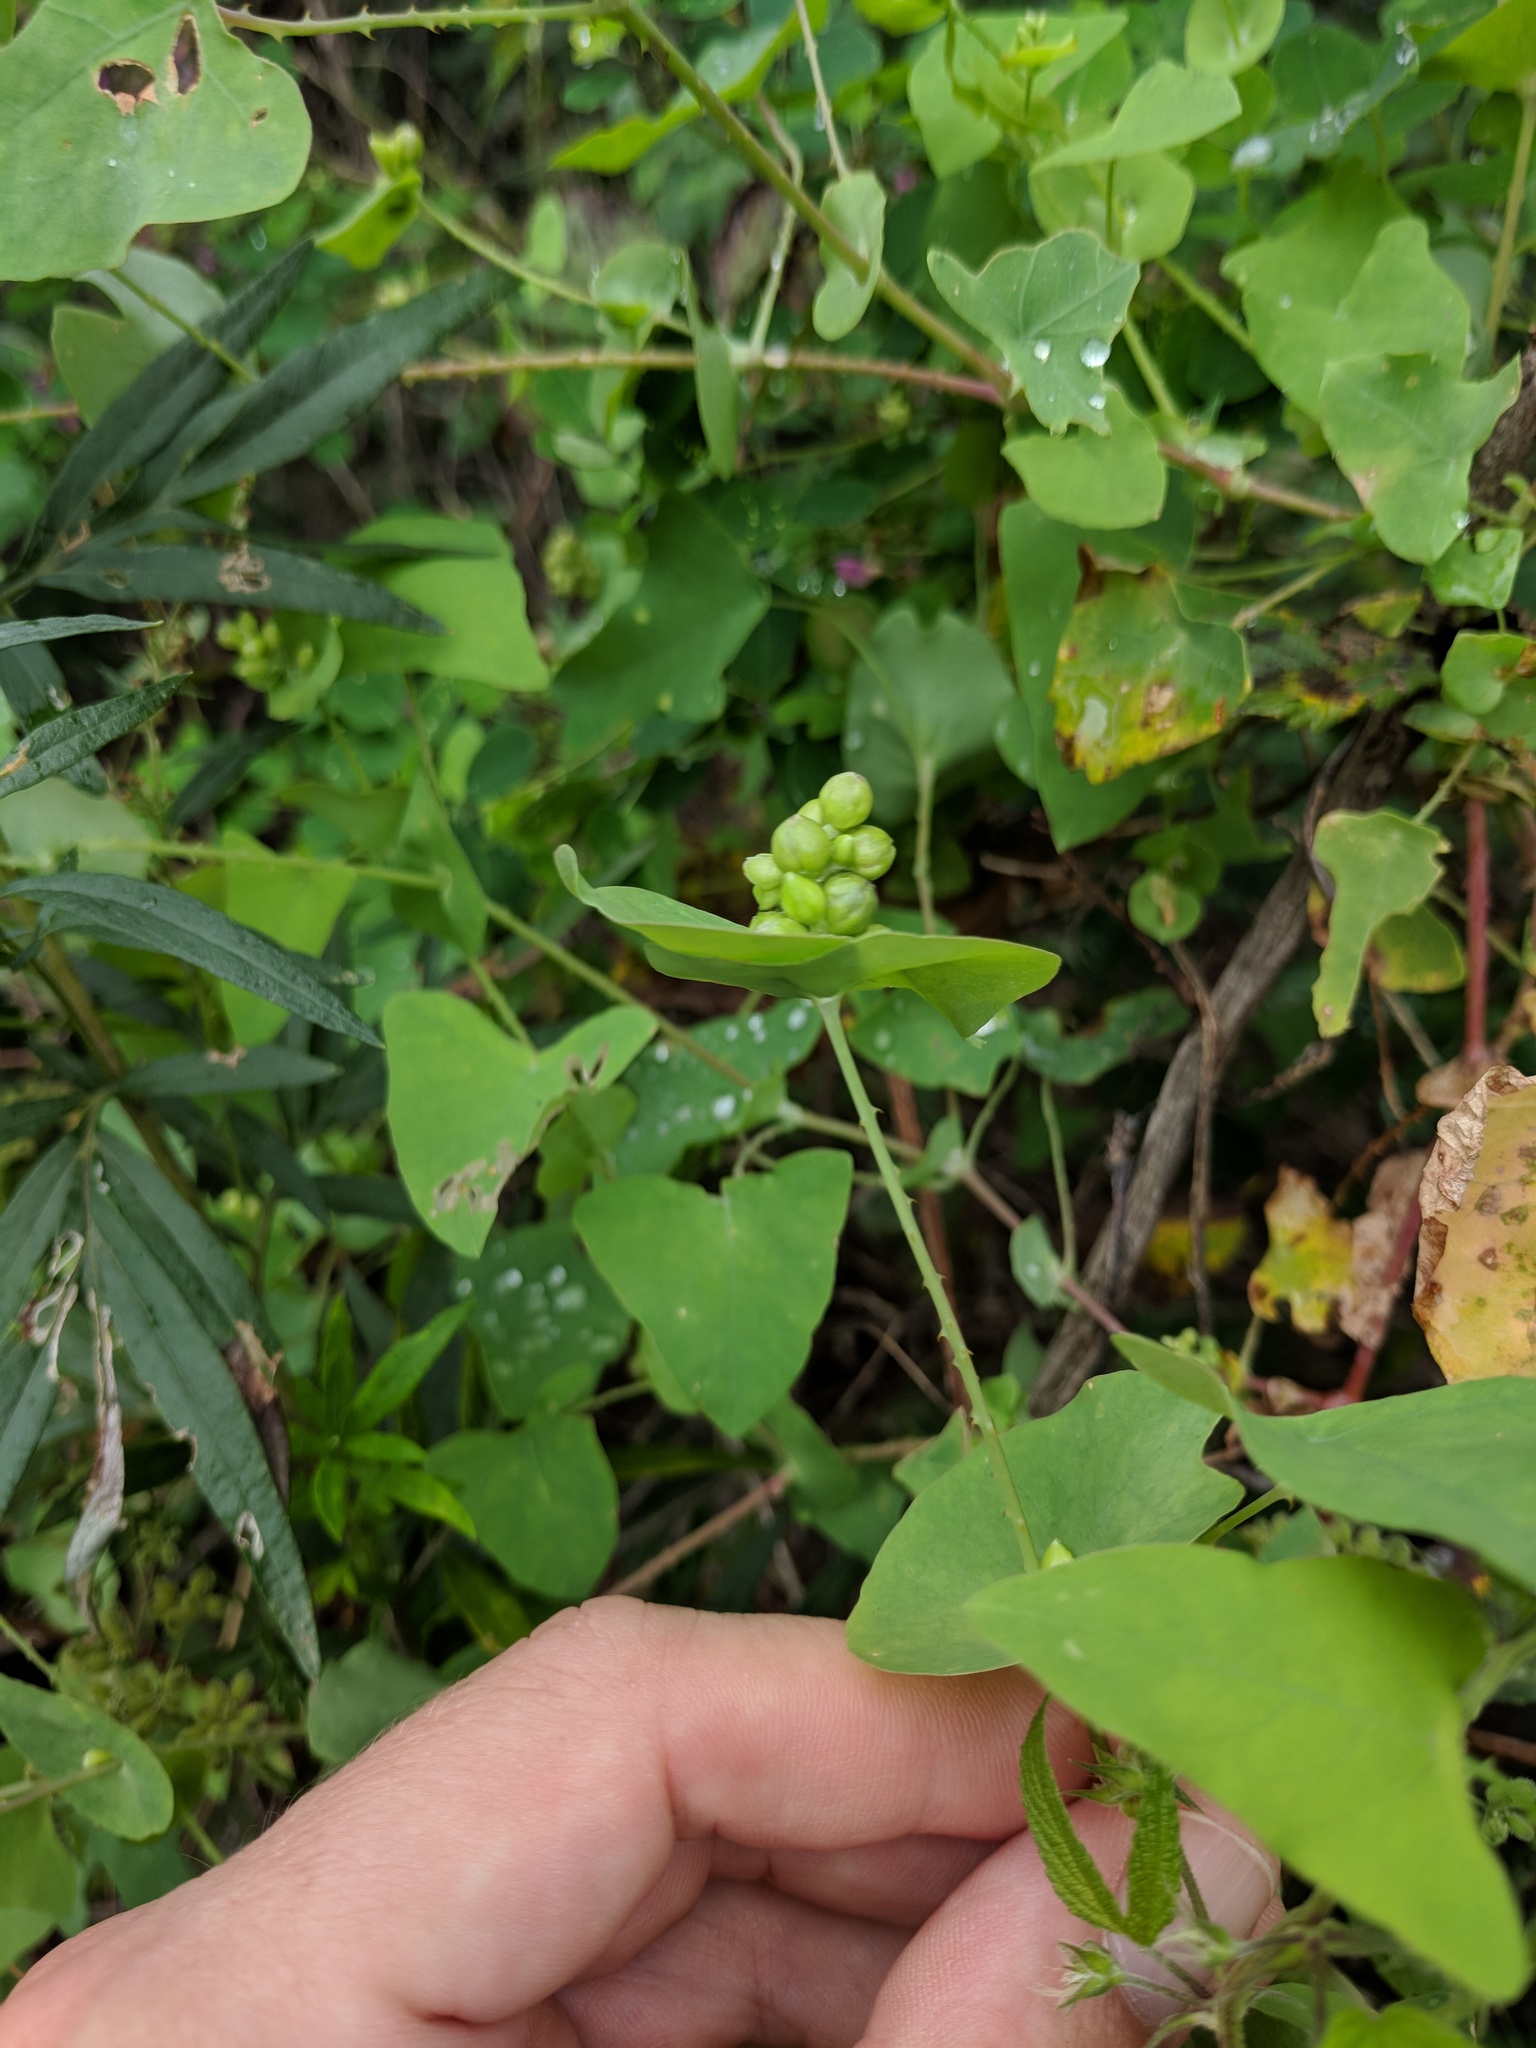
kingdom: Plantae
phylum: Tracheophyta
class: Magnoliopsida
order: Caryophyllales
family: Polygonaceae
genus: Persicaria
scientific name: Persicaria perfoliata
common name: Asiatic tearthumb
